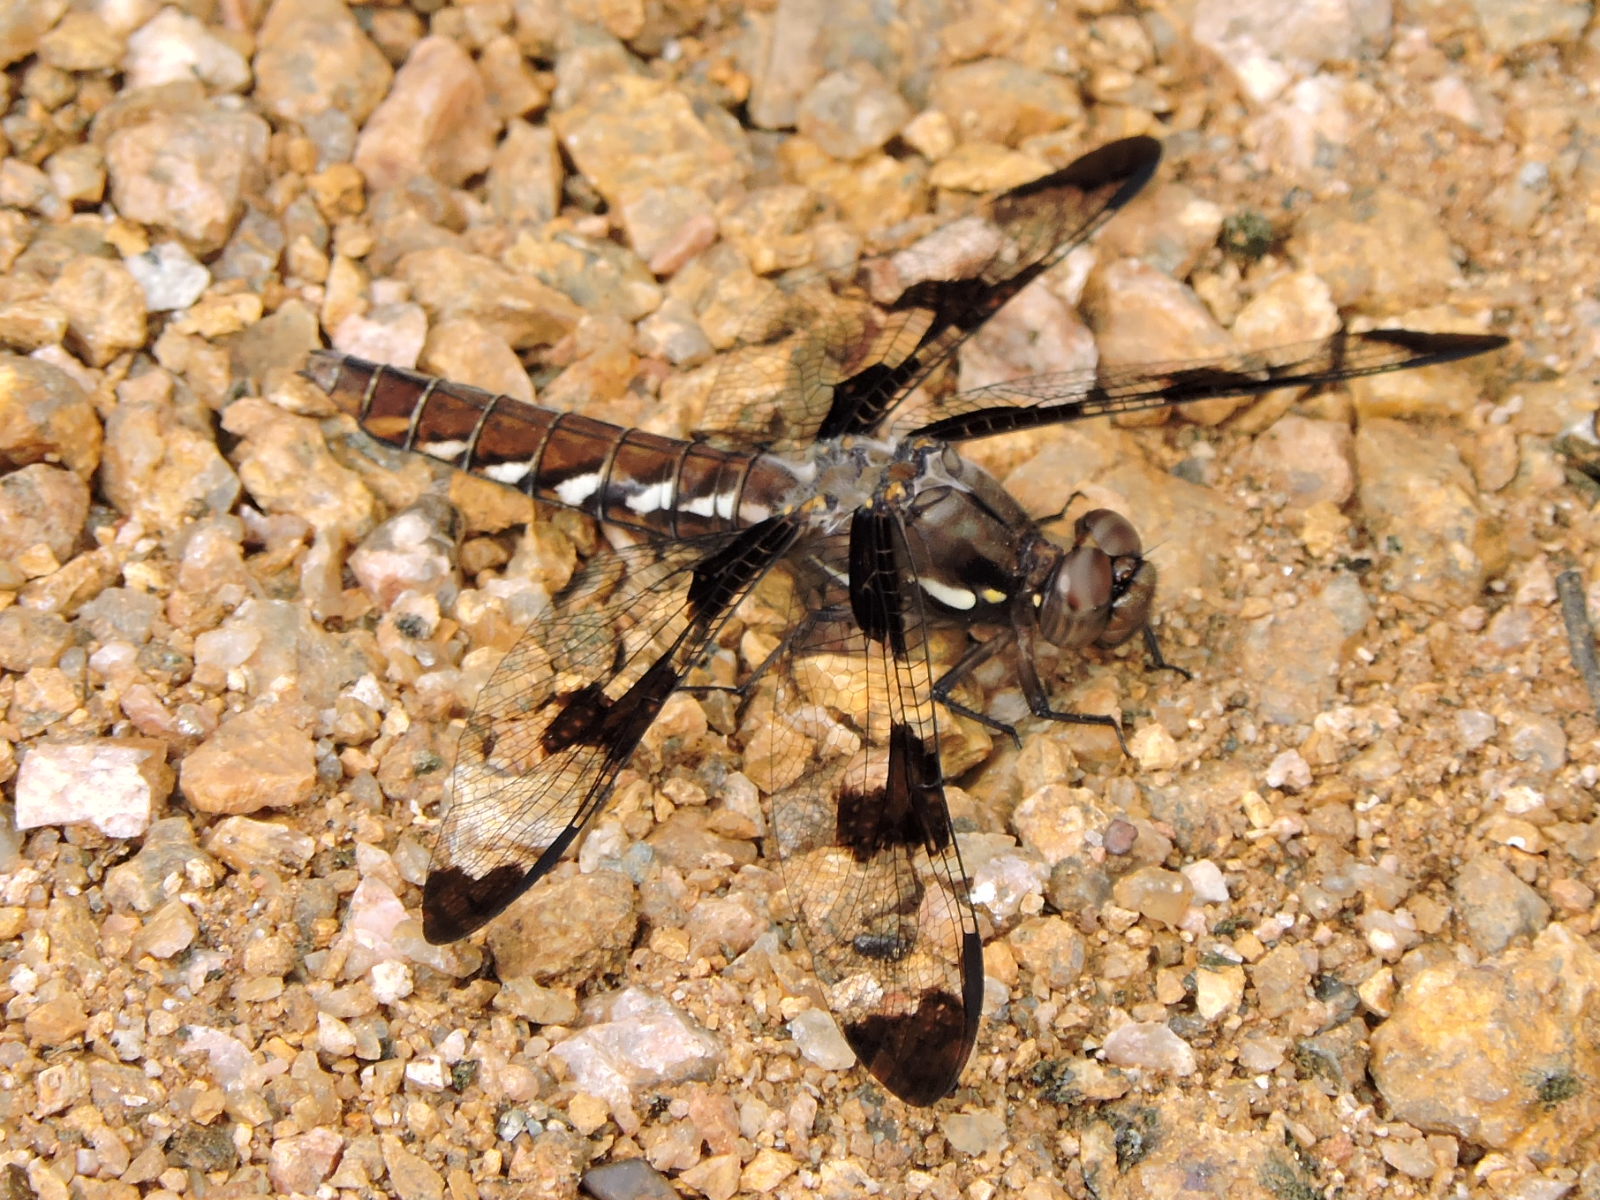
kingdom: Animalia
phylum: Arthropoda
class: Insecta
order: Odonata
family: Libellulidae
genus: Plathemis
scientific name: Plathemis lydia
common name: Common whitetail
